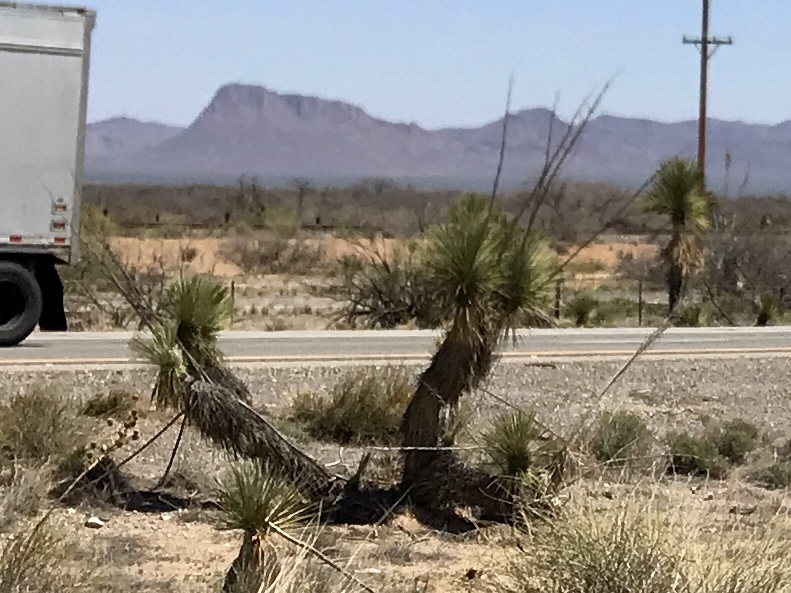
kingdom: Plantae
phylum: Tracheophyta
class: Liliopsida
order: Asparagales
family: Asparagaceae
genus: Yucca
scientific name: Yucca elata
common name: Palmella
